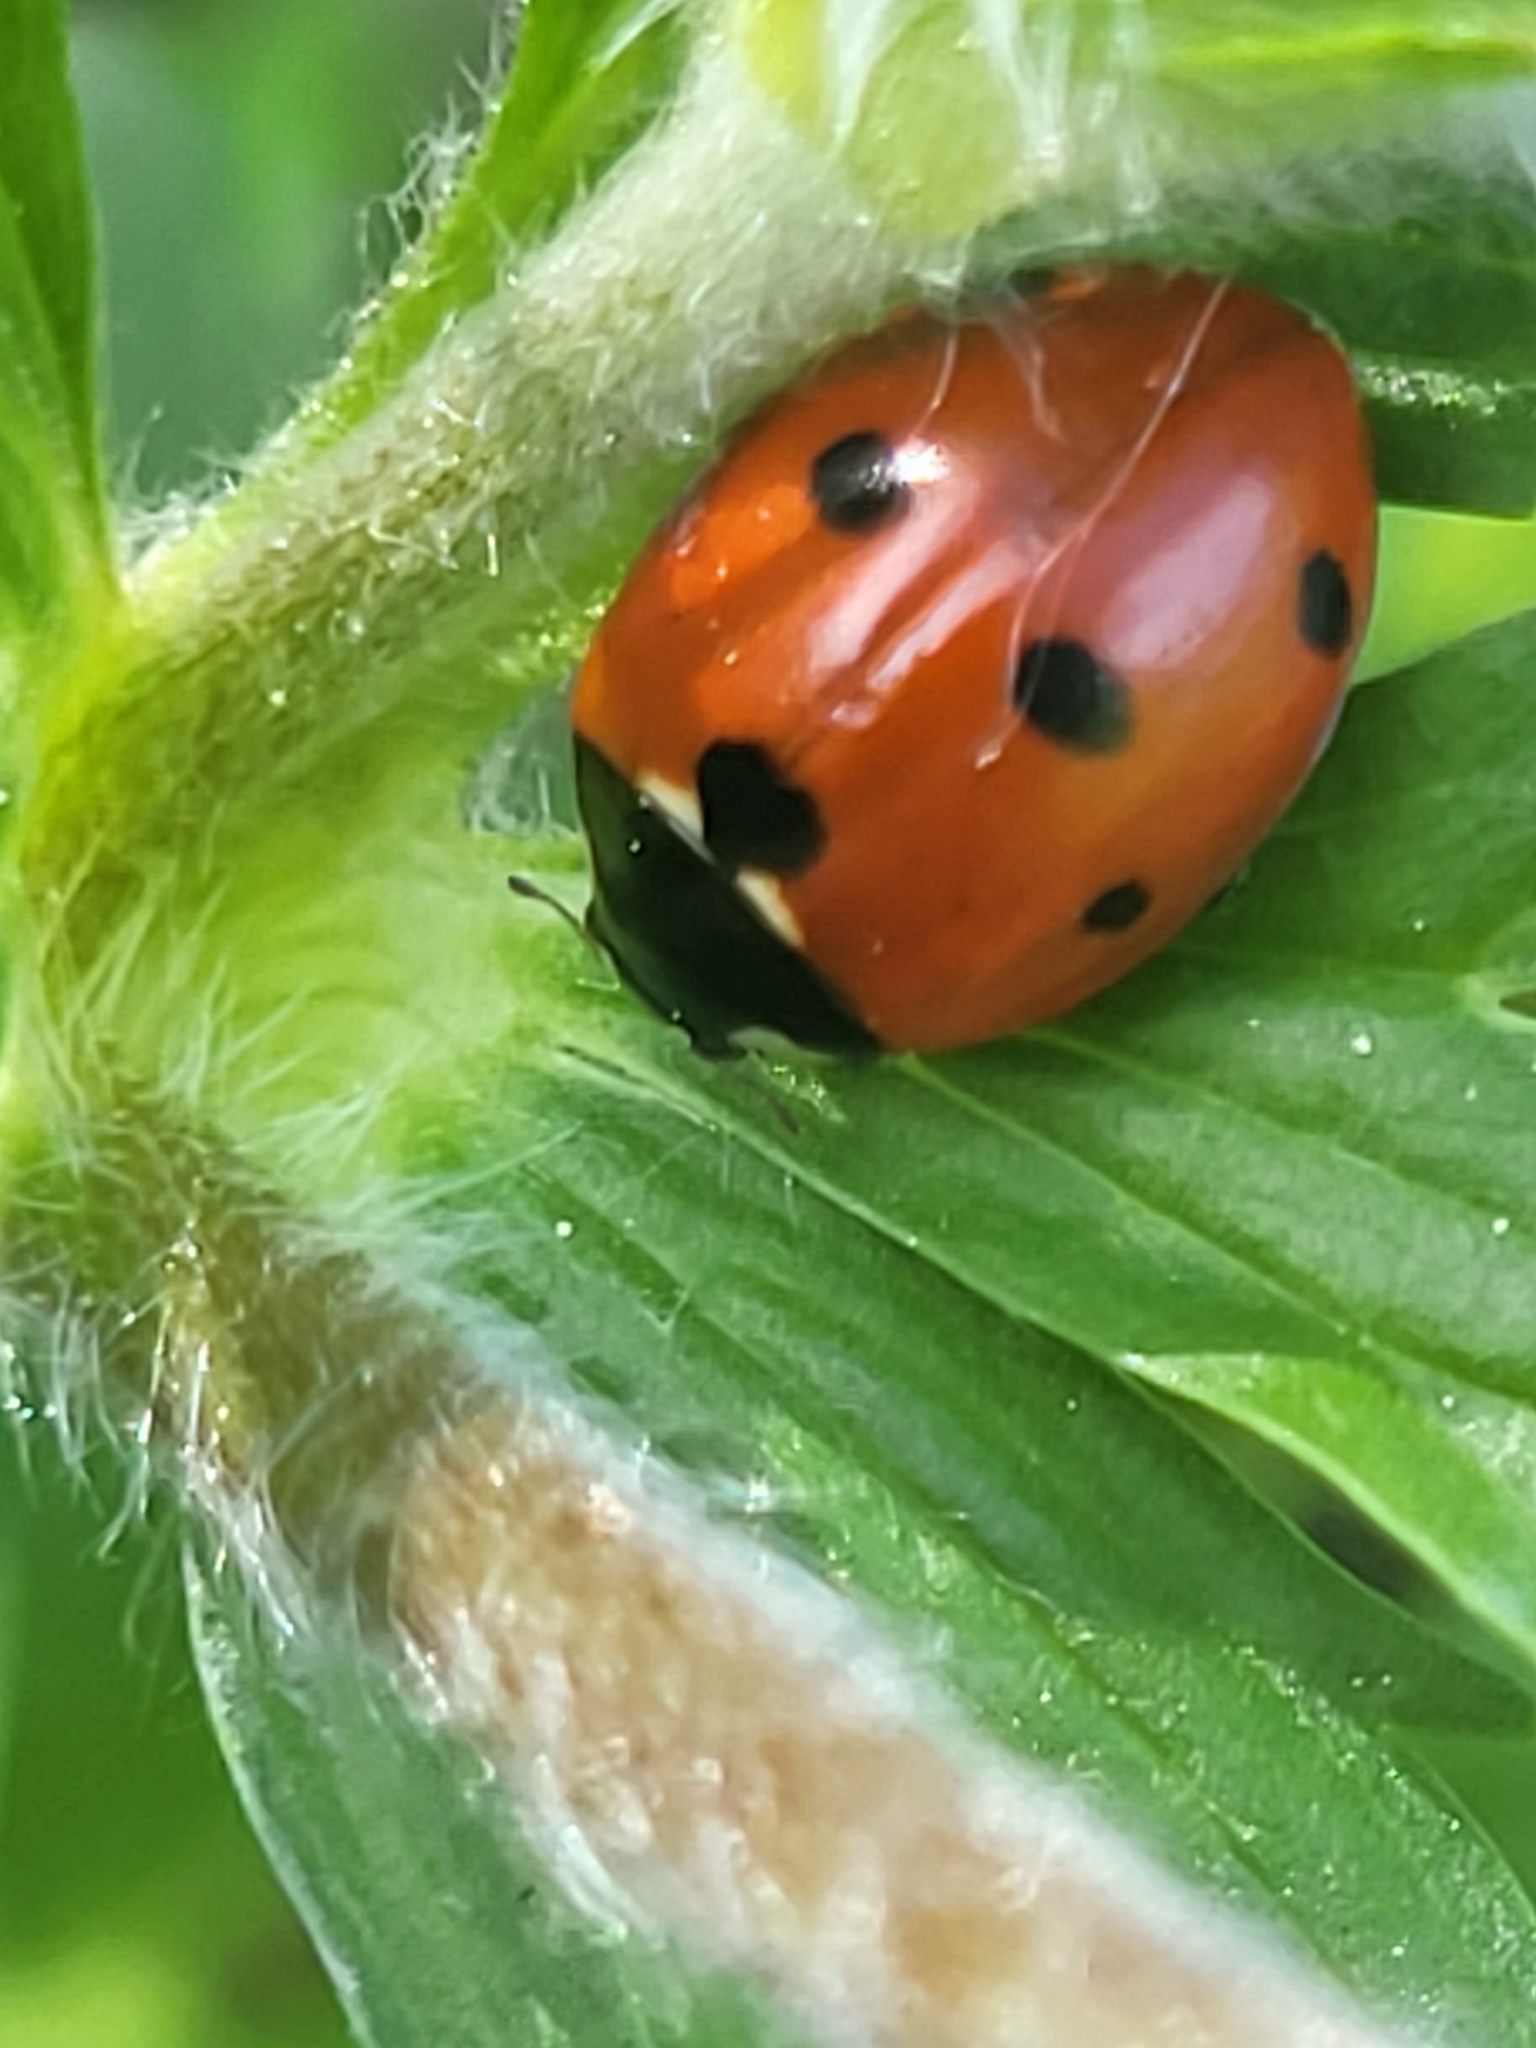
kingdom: Animalia
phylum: Arthropoda
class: Insecta
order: Coleoptera
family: Coccinellidae
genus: Coccinella
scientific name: Coccinella septempunctata
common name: Sevenspotted lady beetle
